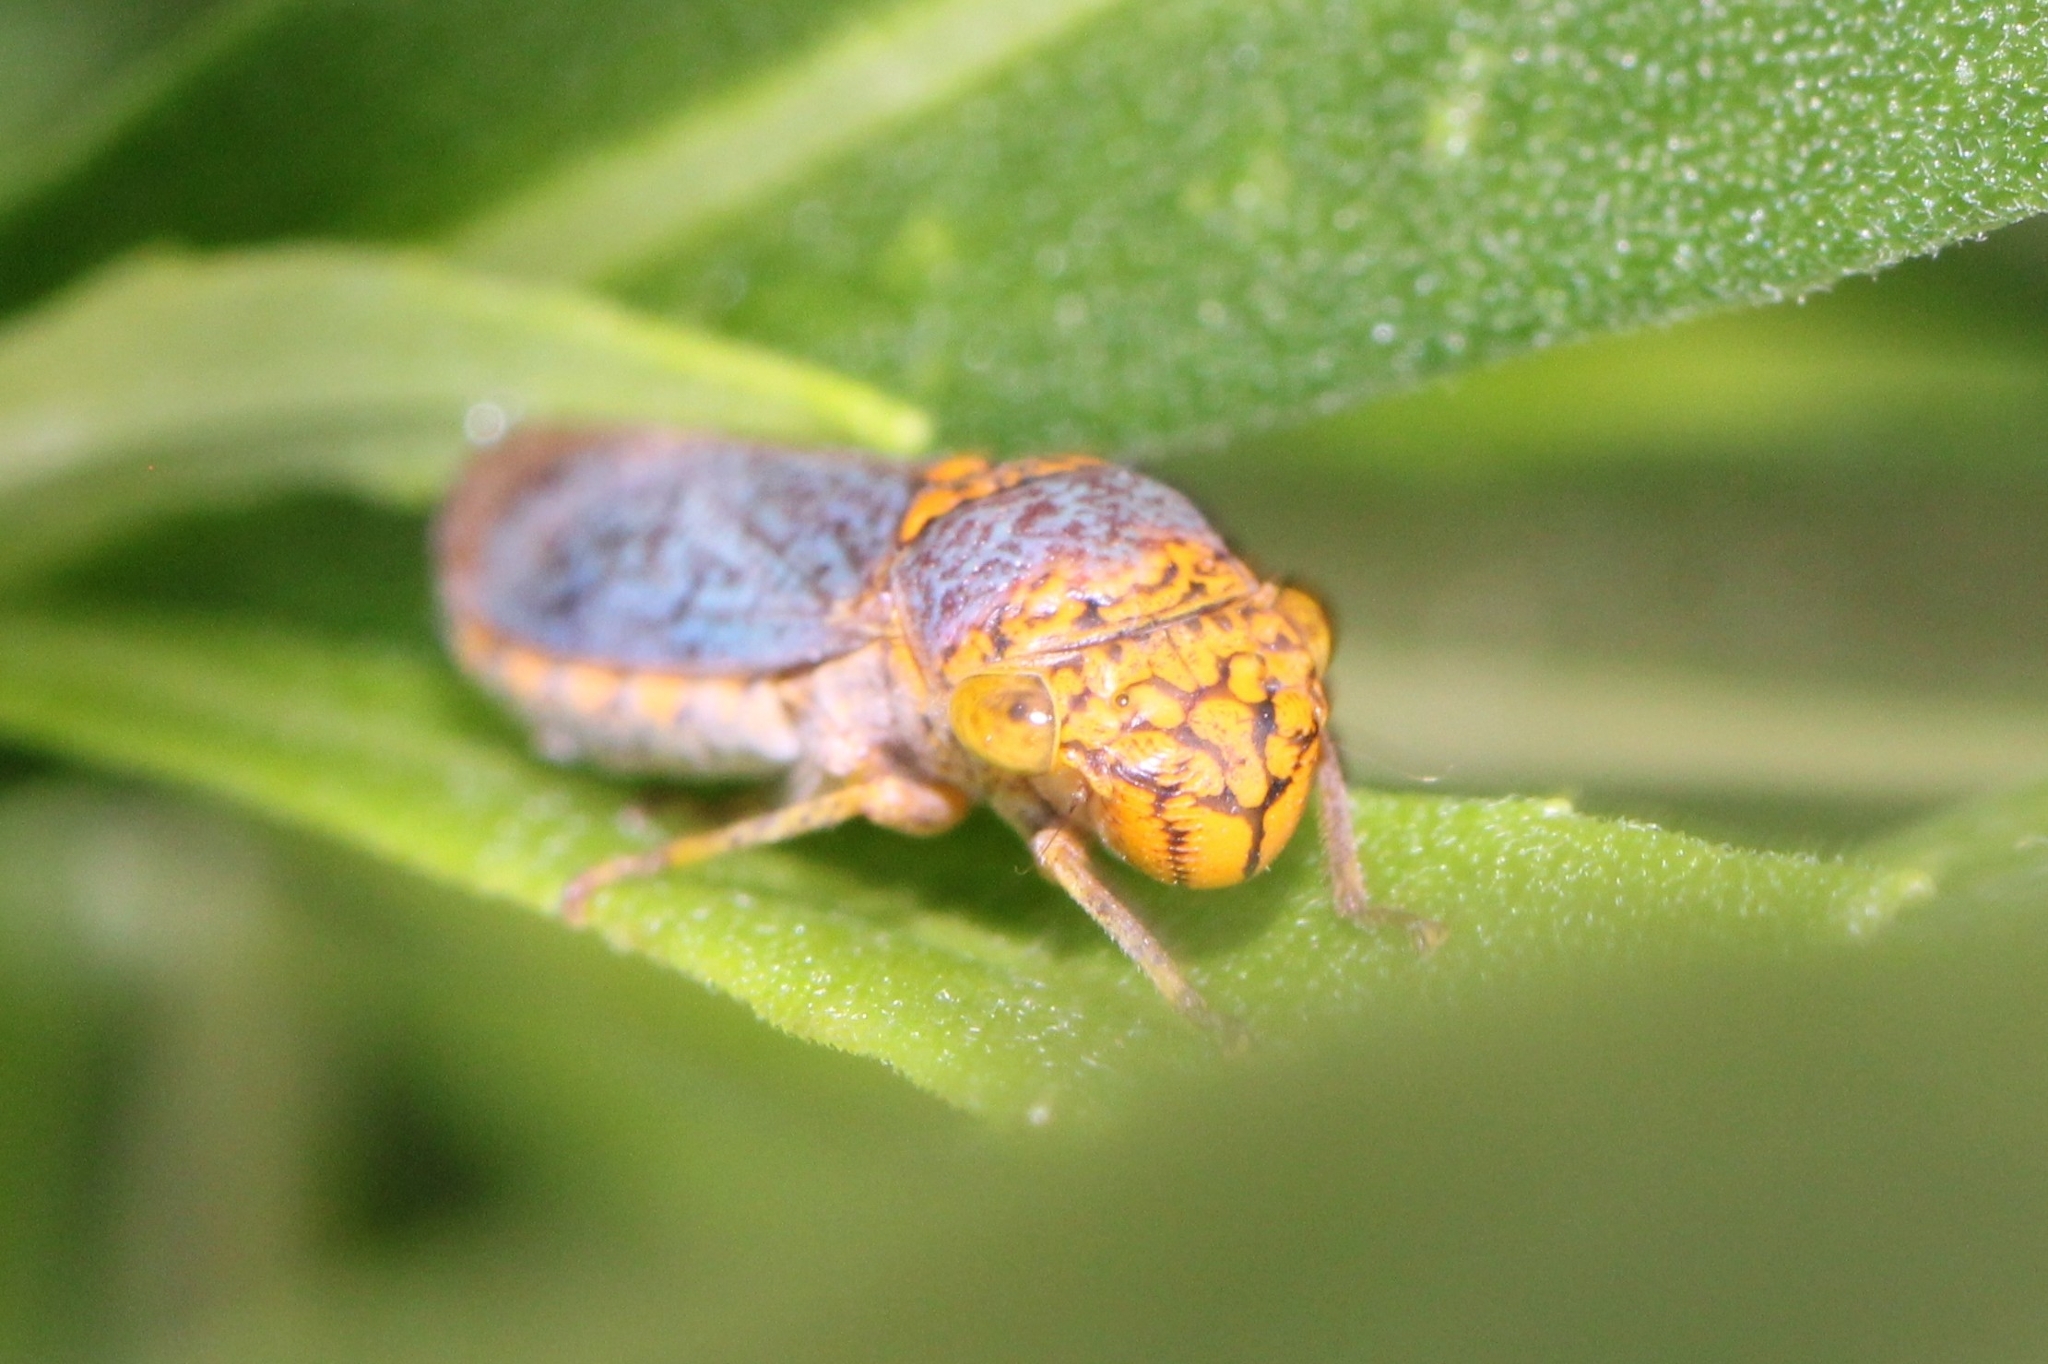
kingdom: Animalia
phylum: Arthropoda
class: Insecta
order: Hemiptera
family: Cicadellidae
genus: Oncometopia
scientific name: Oncometopia orbona
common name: Broad-headed sharpshooter
